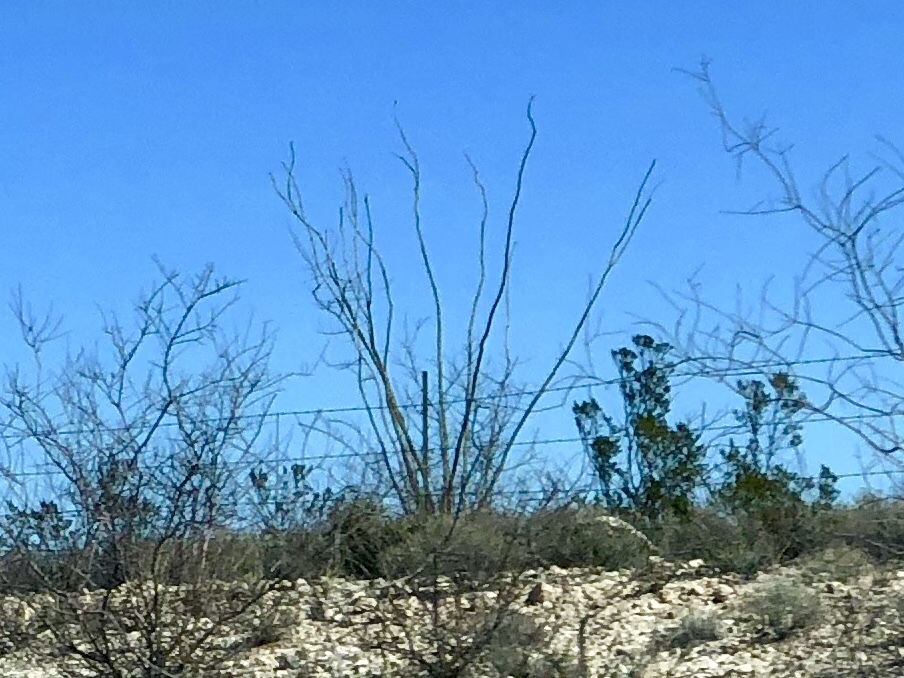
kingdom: Plantae
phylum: Tracheophyta
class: Magnoliopsida
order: Ericales
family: Fouquieriaceae
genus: Fouquieria
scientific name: Fouquieria splendens
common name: Vine-cactus
